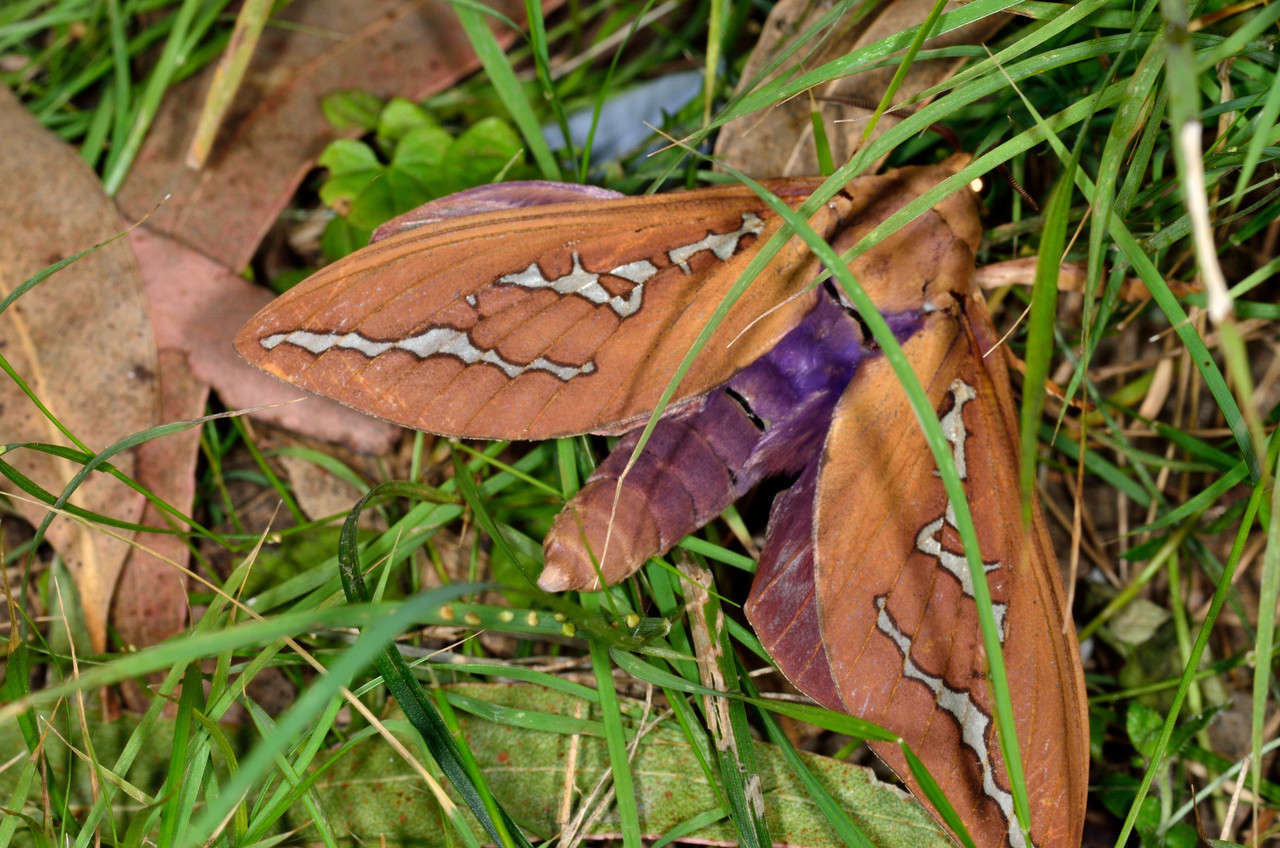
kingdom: Animalia
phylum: Arthropoda
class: Insecta
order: Lepidoptera
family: Hepialidae
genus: Abantiades
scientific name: Abantiades hyalinatus
